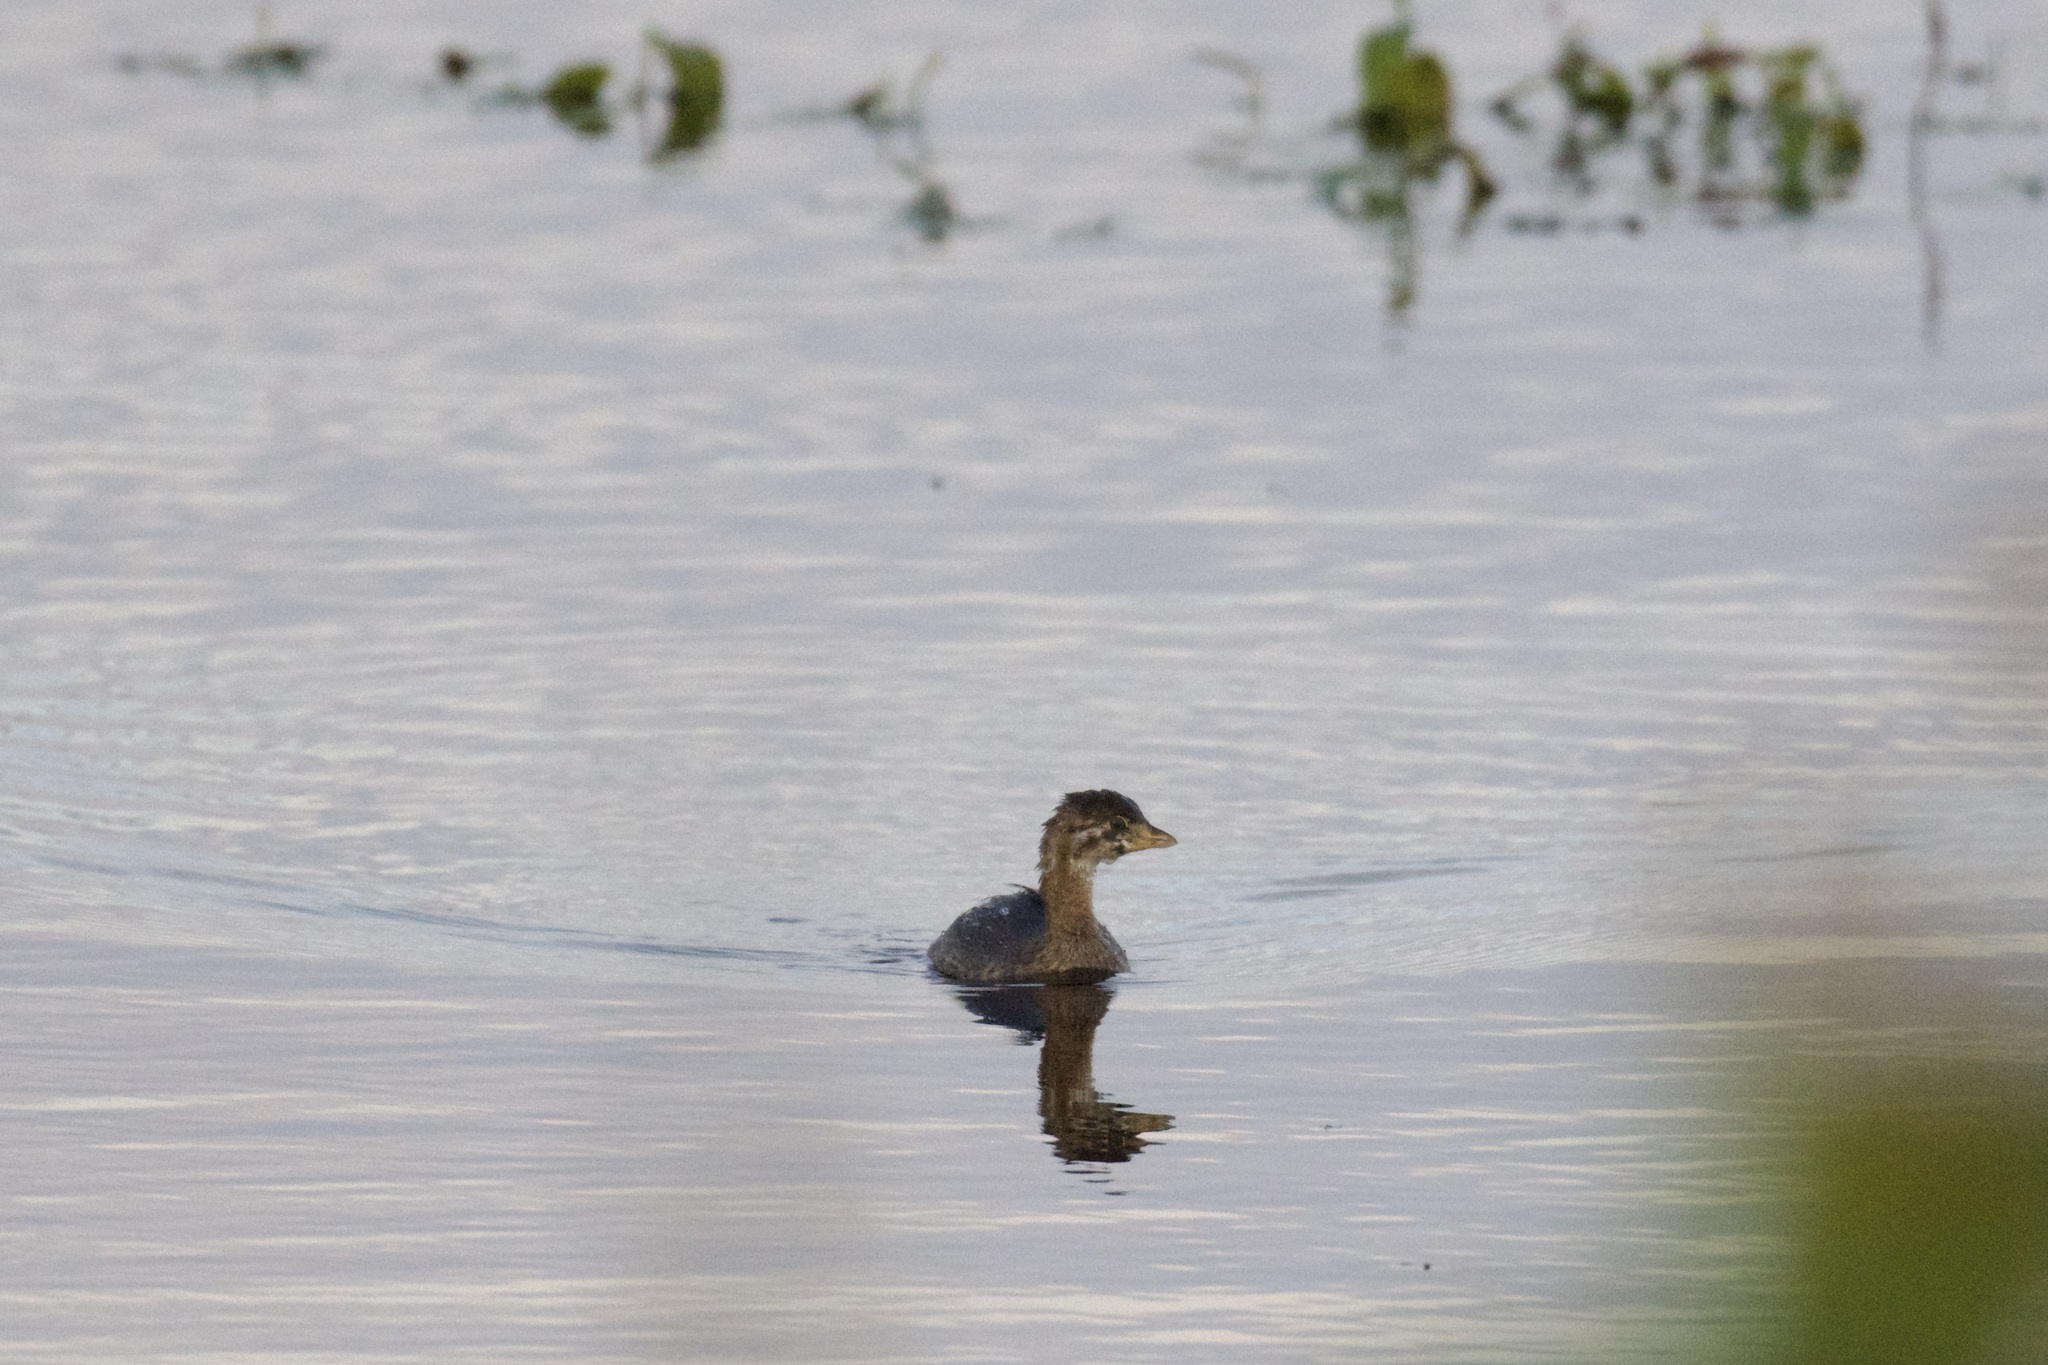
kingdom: Animalia
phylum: Chordata
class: Aves
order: Podicipediformes
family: Podicipedidae
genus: Podilymbus
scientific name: Podilymbus podiceps
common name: Pied-billed grebe
